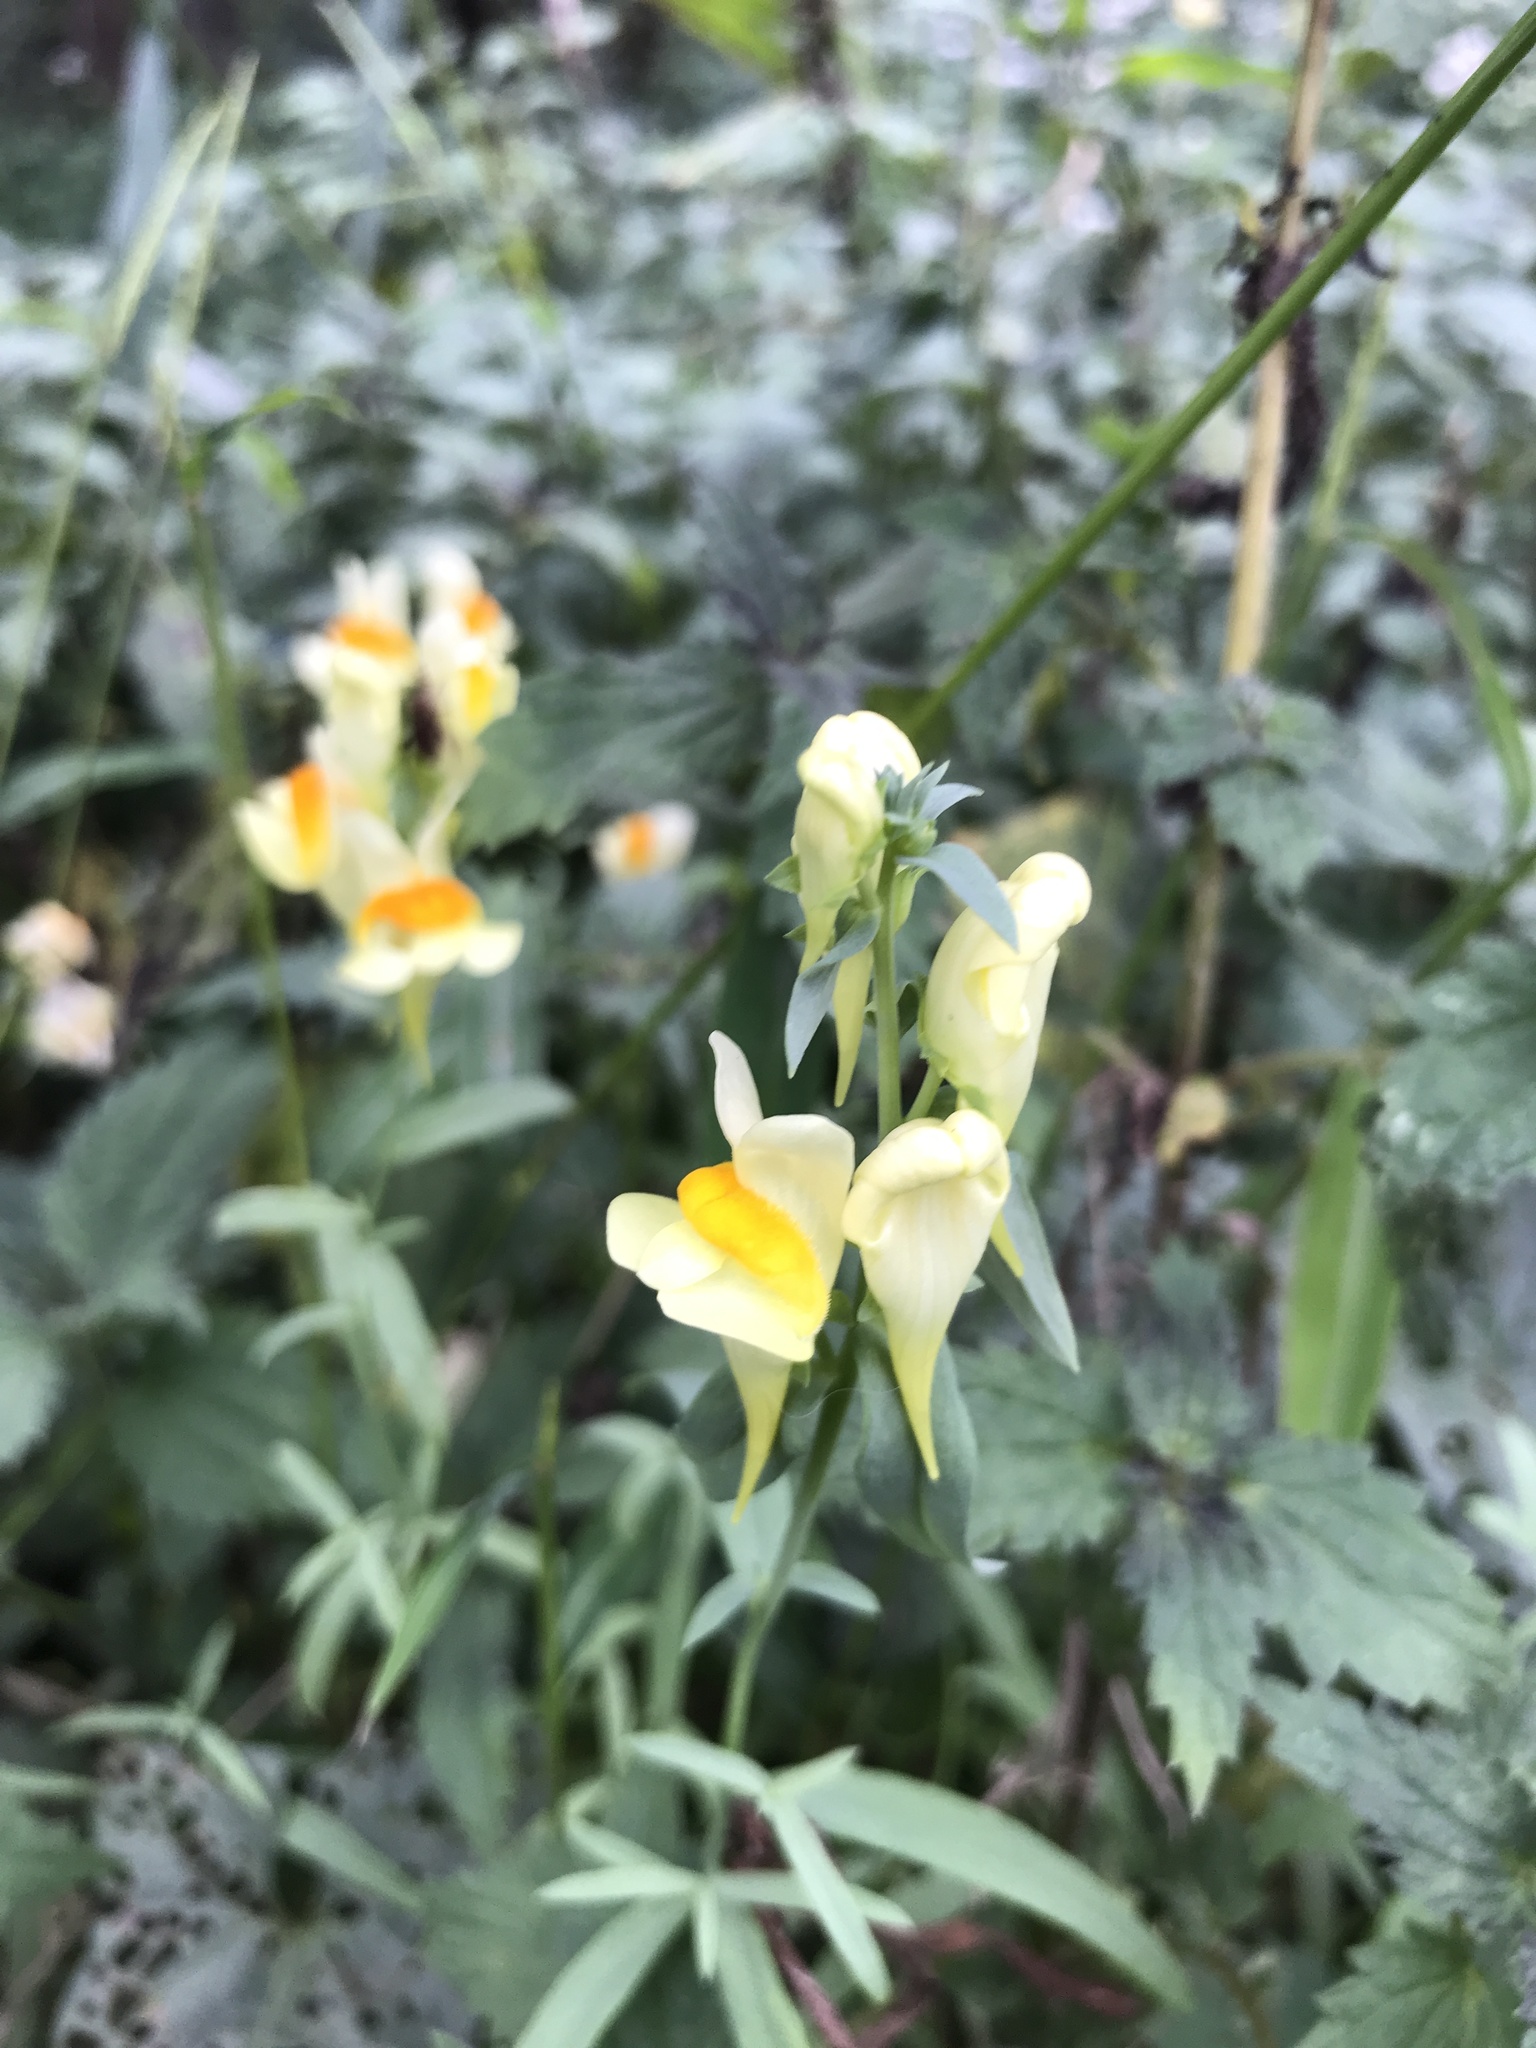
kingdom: Plantae
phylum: Tracheophyta
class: Magnoliopsida
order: Lamiales
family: Plantaginaceae
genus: Linaria
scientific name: Linaria vulgaris
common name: Butter and eggs
